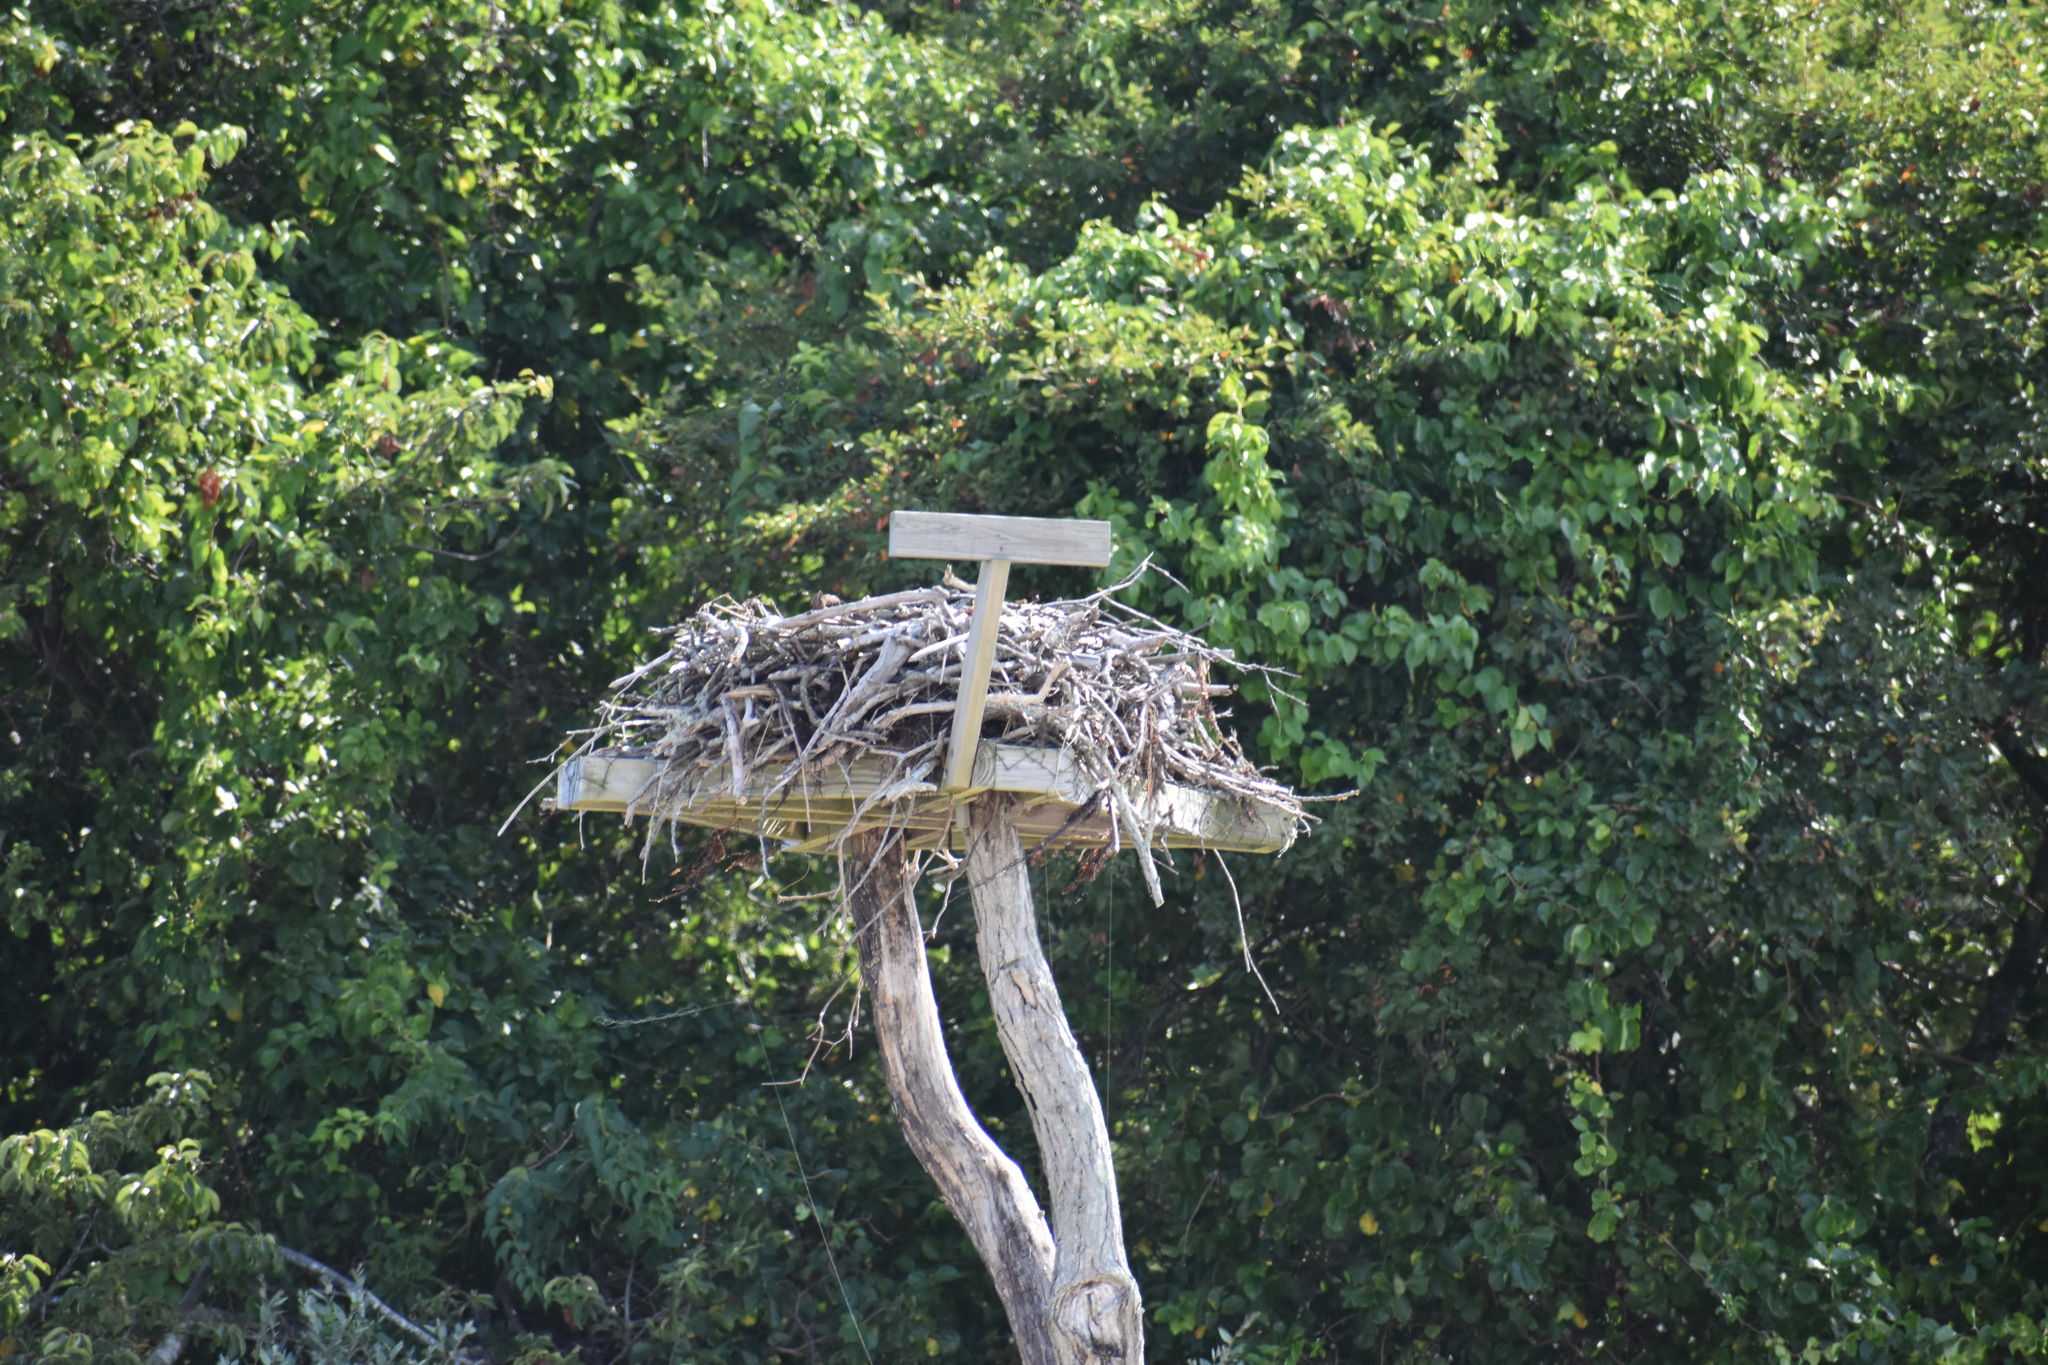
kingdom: Animalia
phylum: Chordata
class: Aves
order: Accipitriformes
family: Pandionidae
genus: Pandion
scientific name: Pandion haliaetus
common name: Osprey
